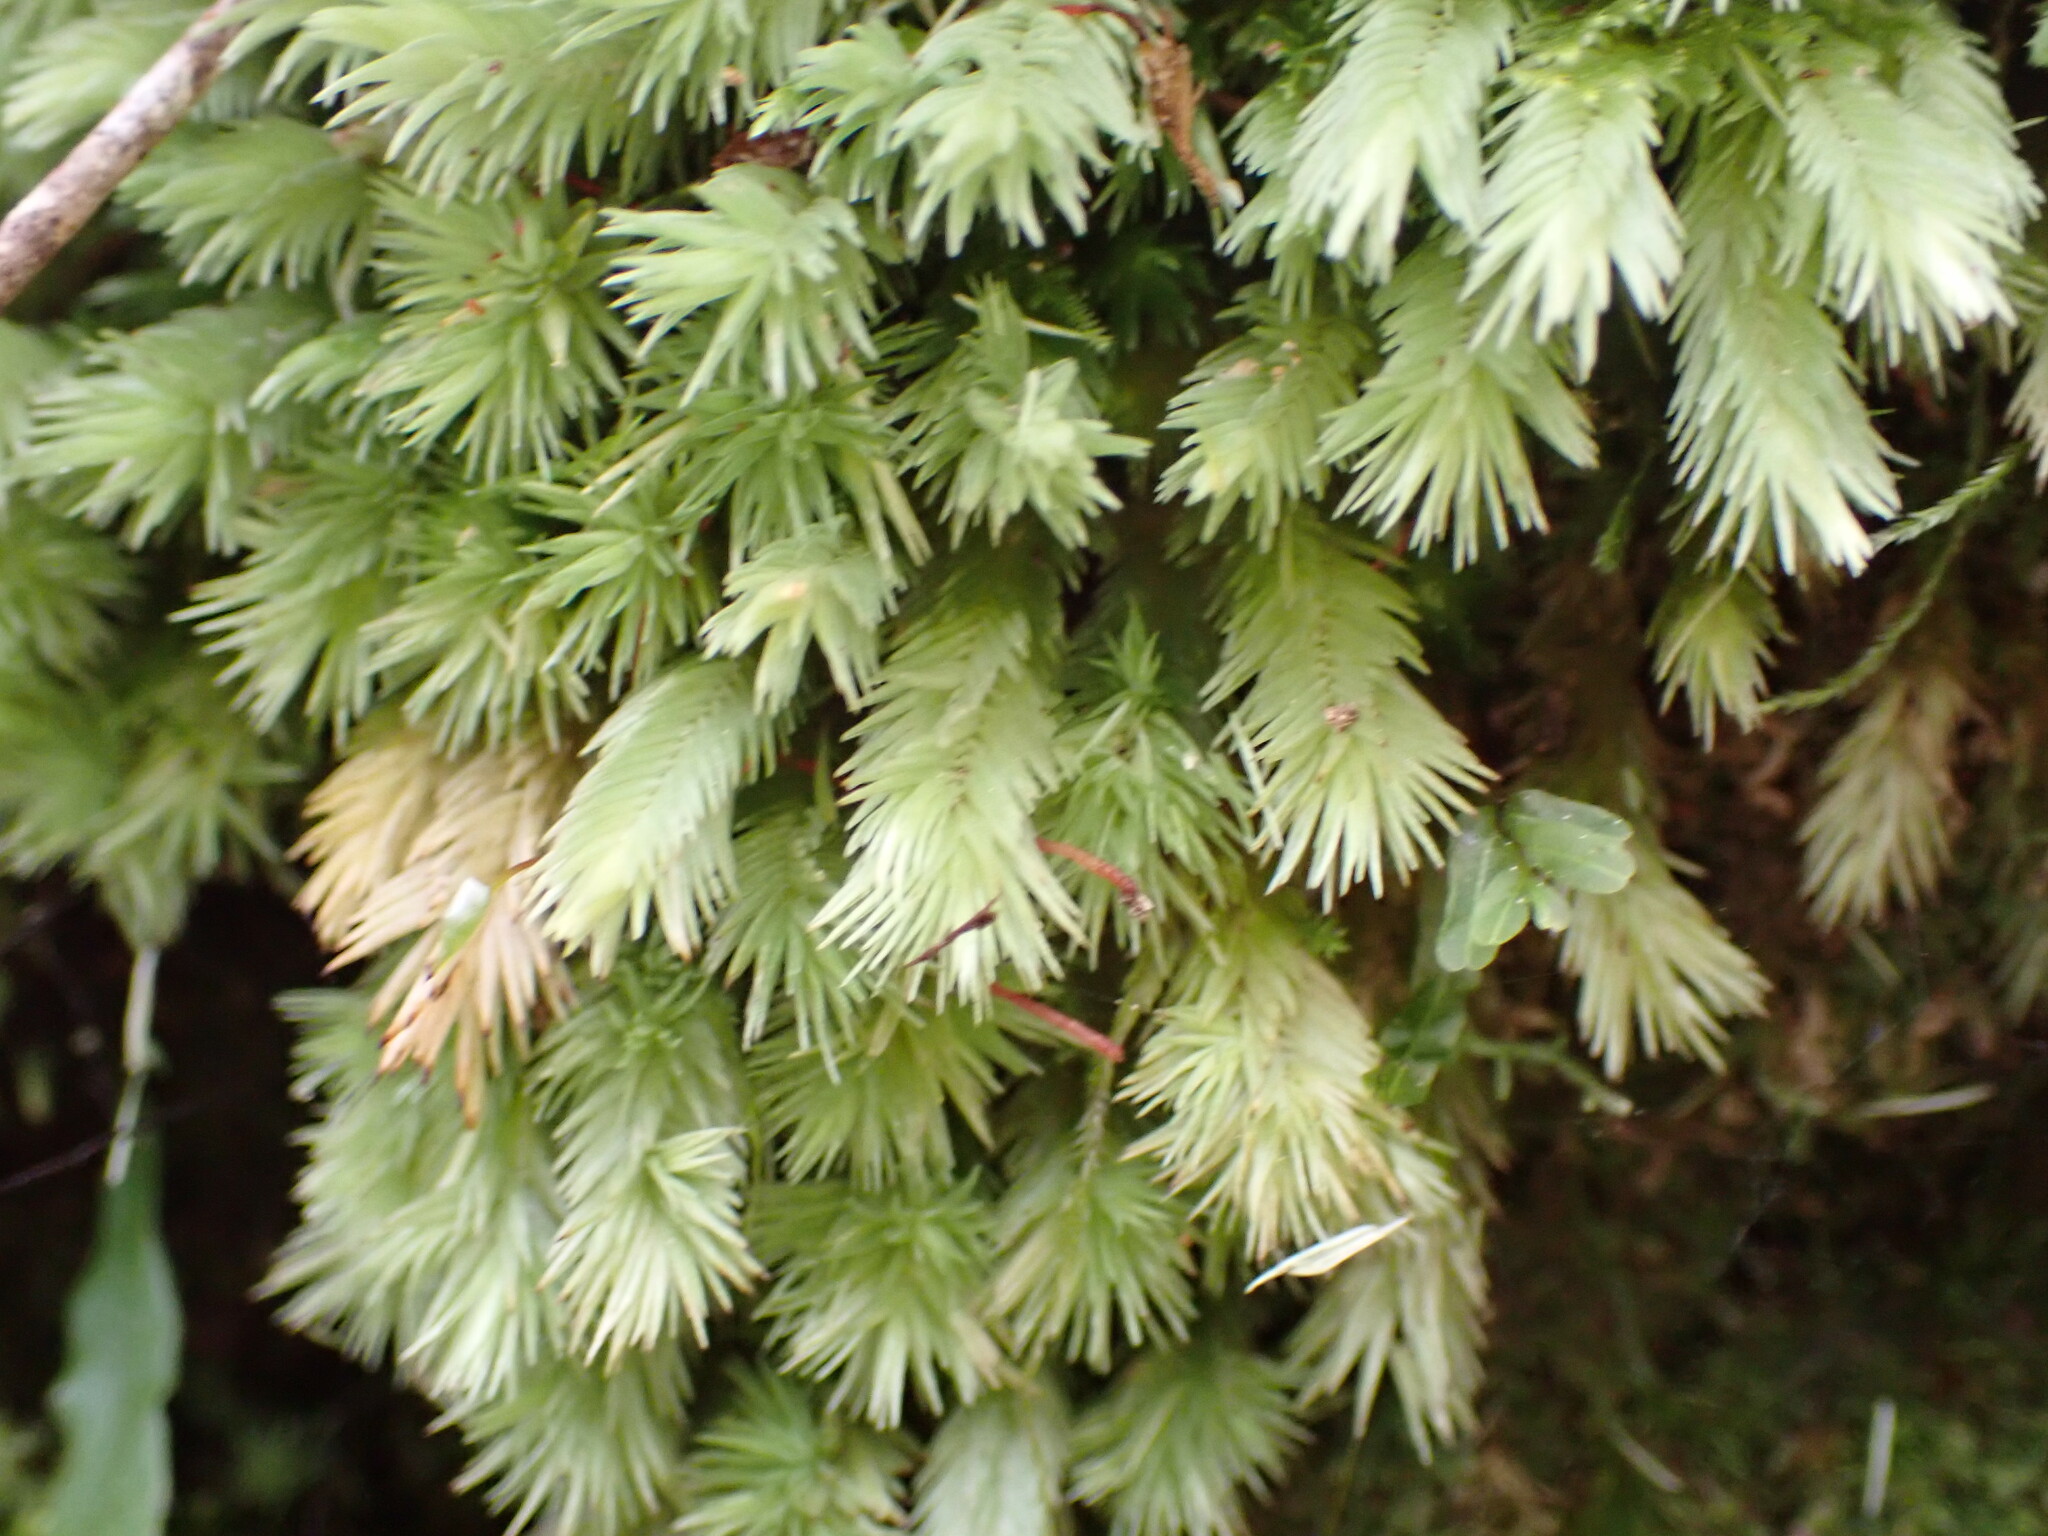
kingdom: Plantae
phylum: Bryophyta
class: Bryopsida
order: Dicranales
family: Leucobryaceae
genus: Leucobryum
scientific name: Leucobryum javense
